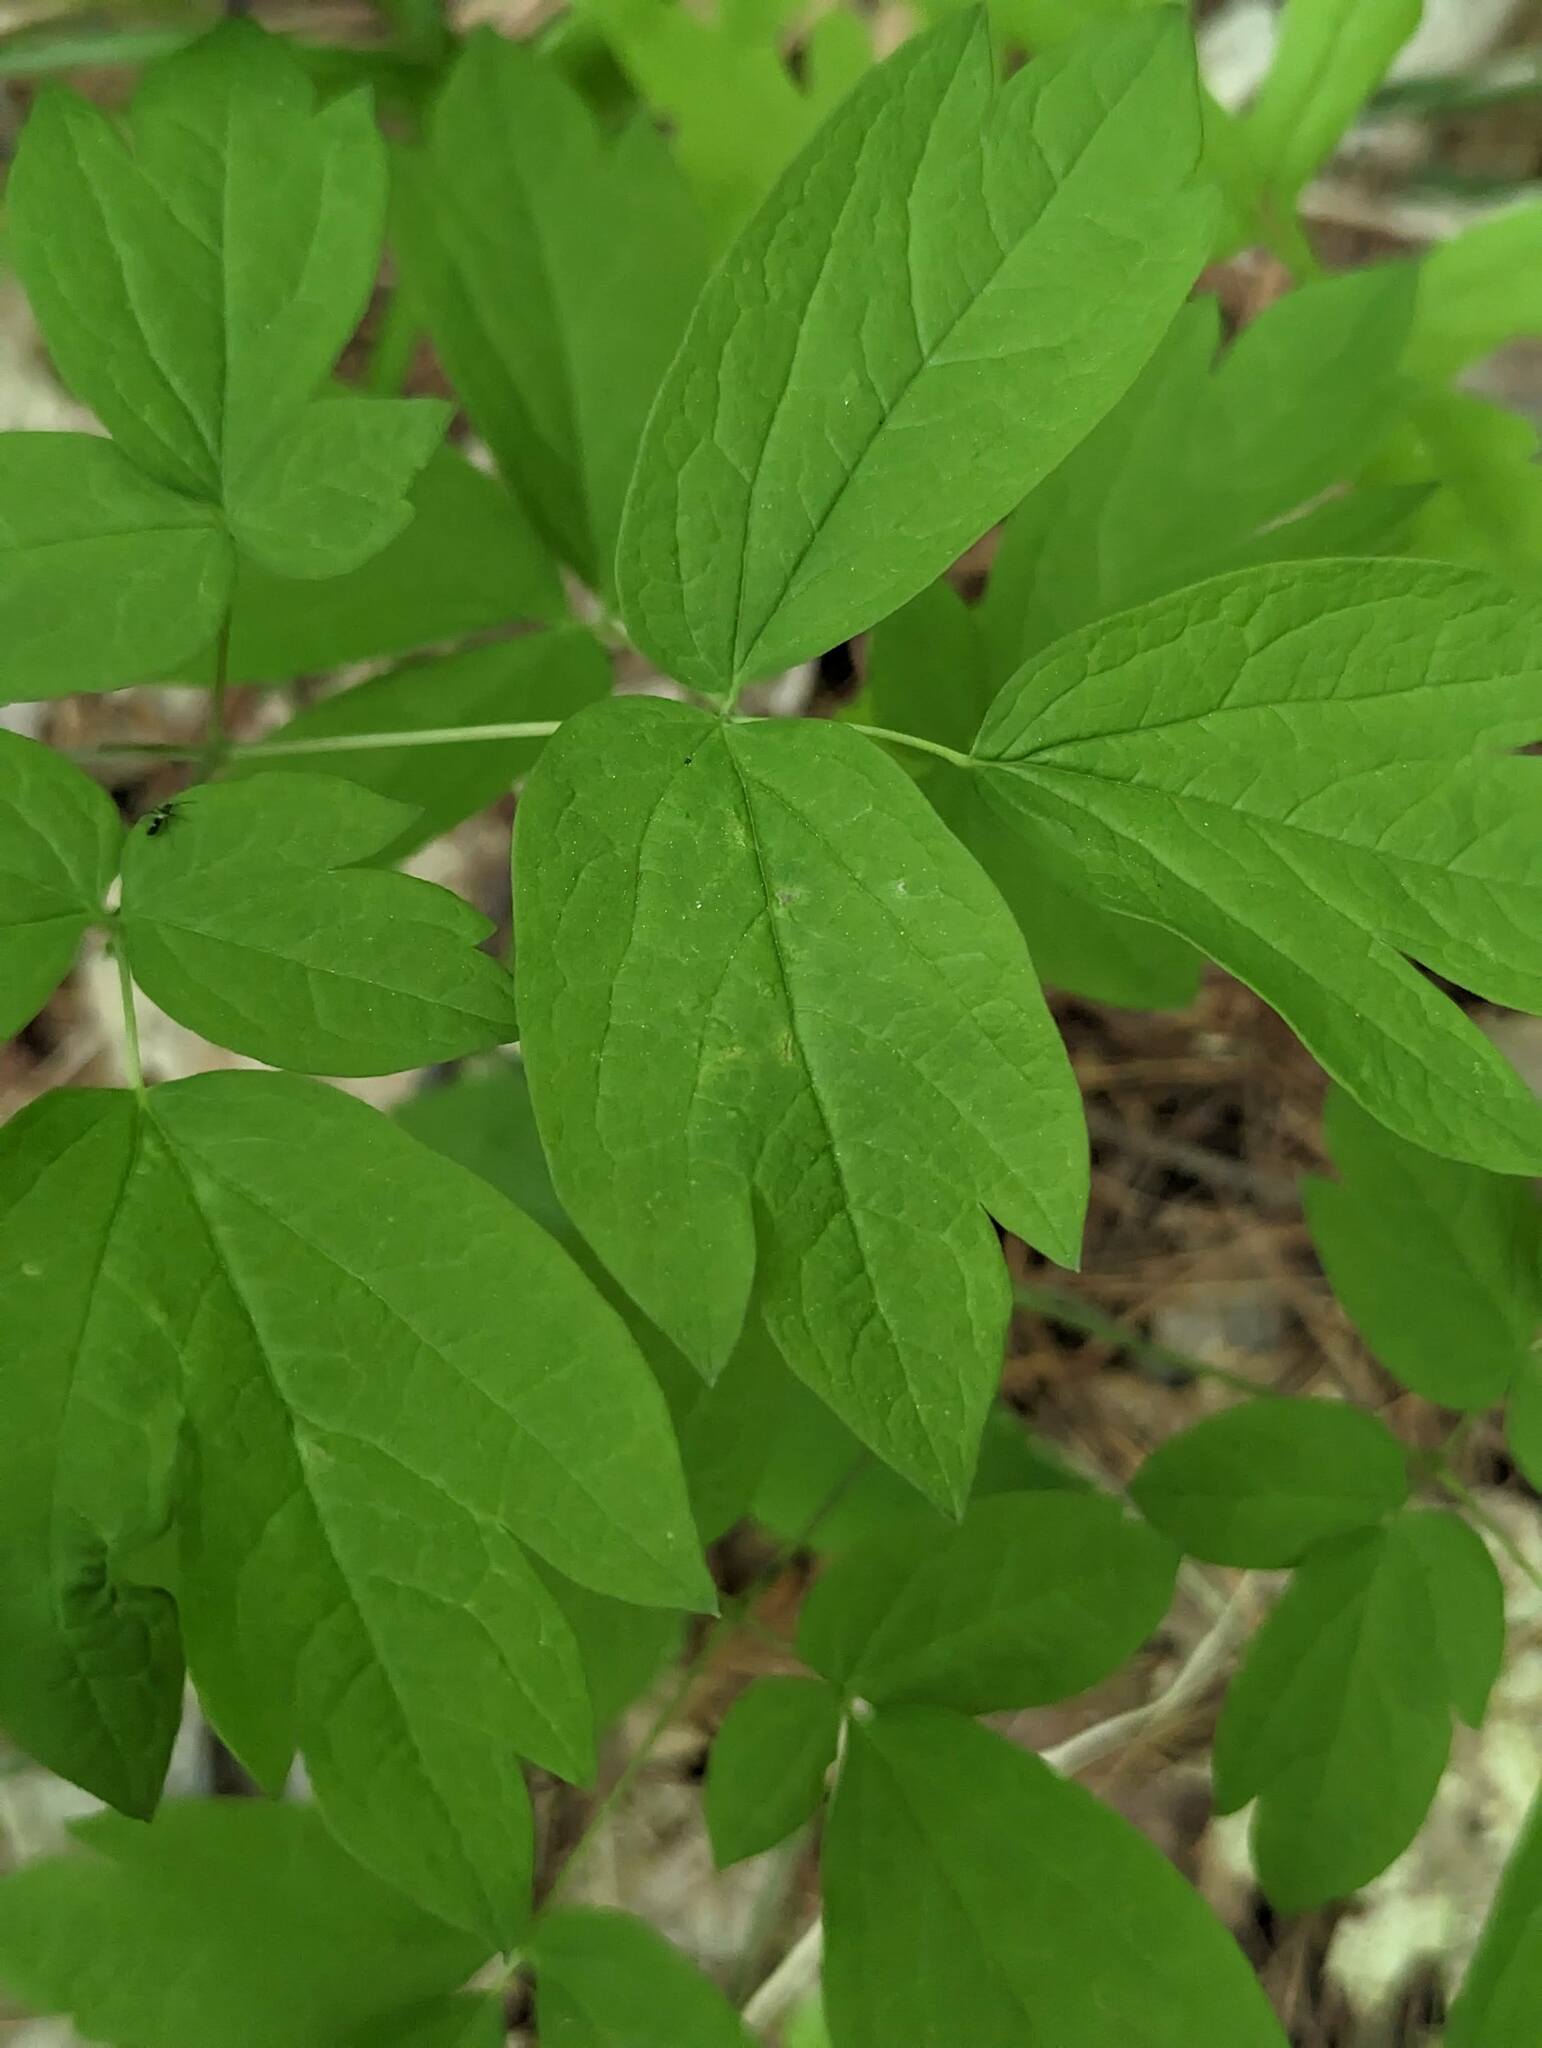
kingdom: Plantae
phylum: Tracheophyta
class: Magnoliopsida
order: Ranunculales
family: Berberidaceae
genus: Caulophyllum
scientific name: Caulophyllum thalictroides
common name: Blue cohosh
